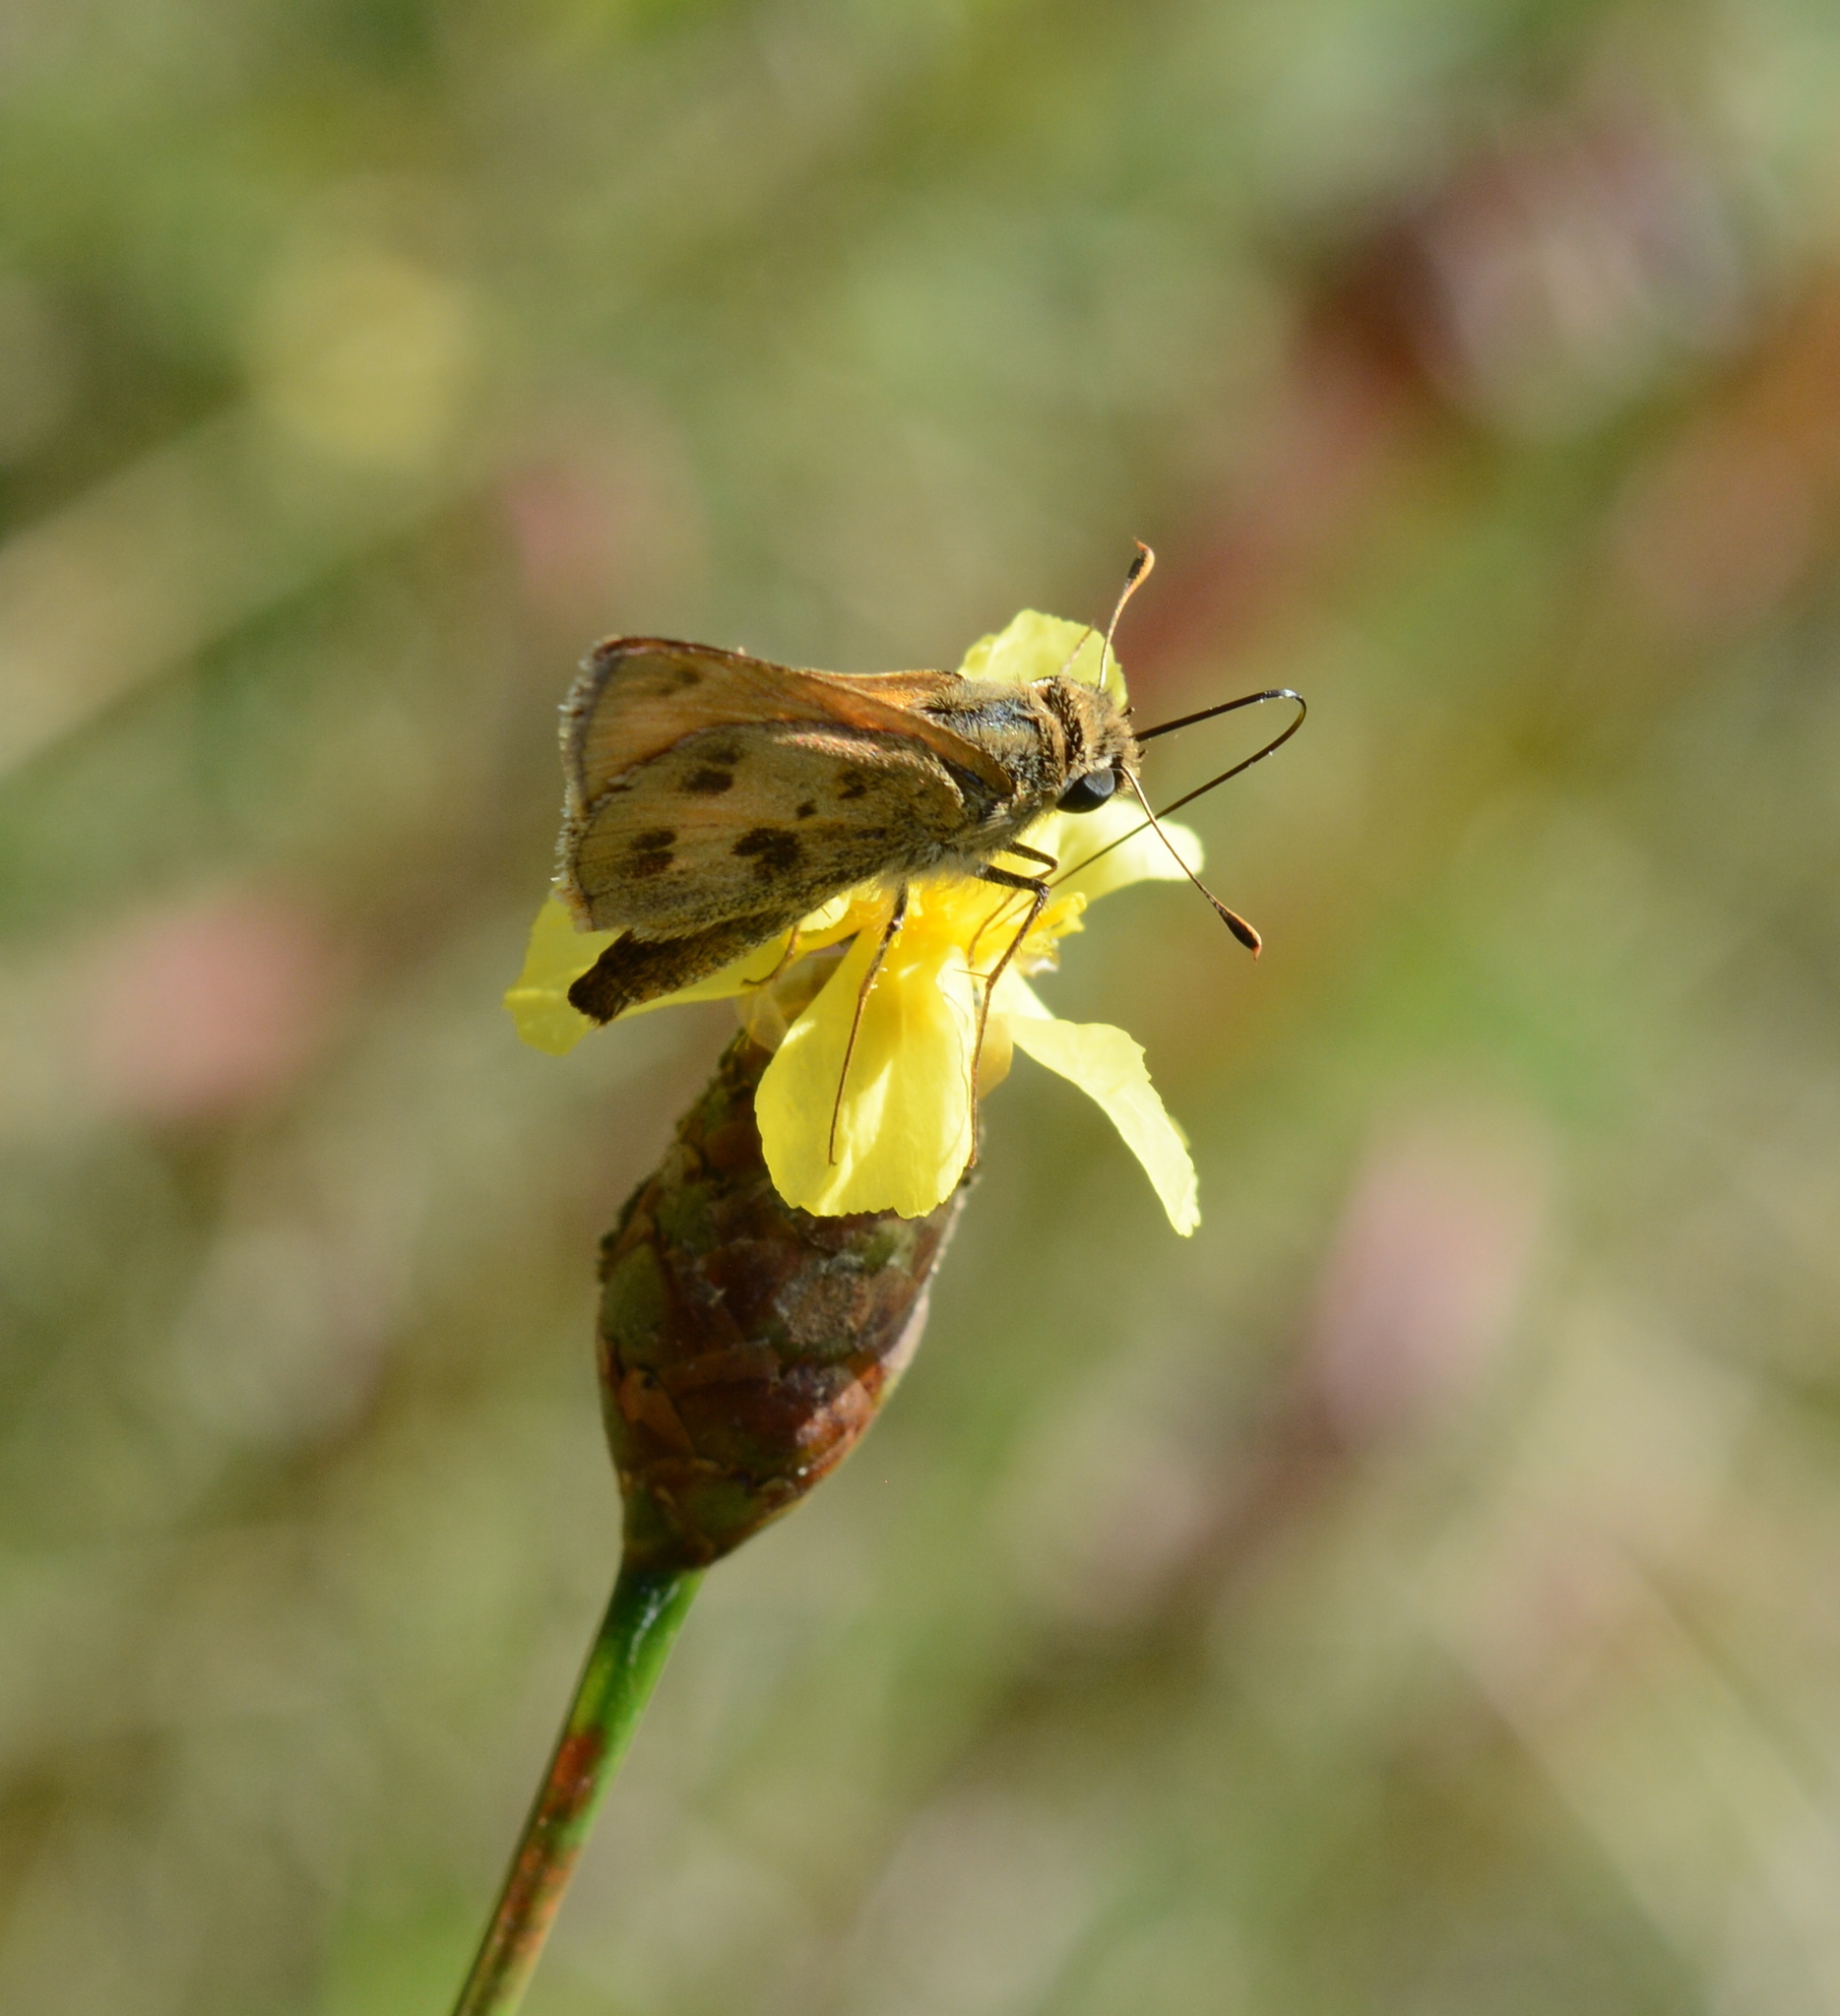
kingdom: Animalia
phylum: Arthropoda
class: Insecta
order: Lepidoptera
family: Hesperiidae
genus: Polites
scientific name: Polites vibex
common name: Whirlabout
